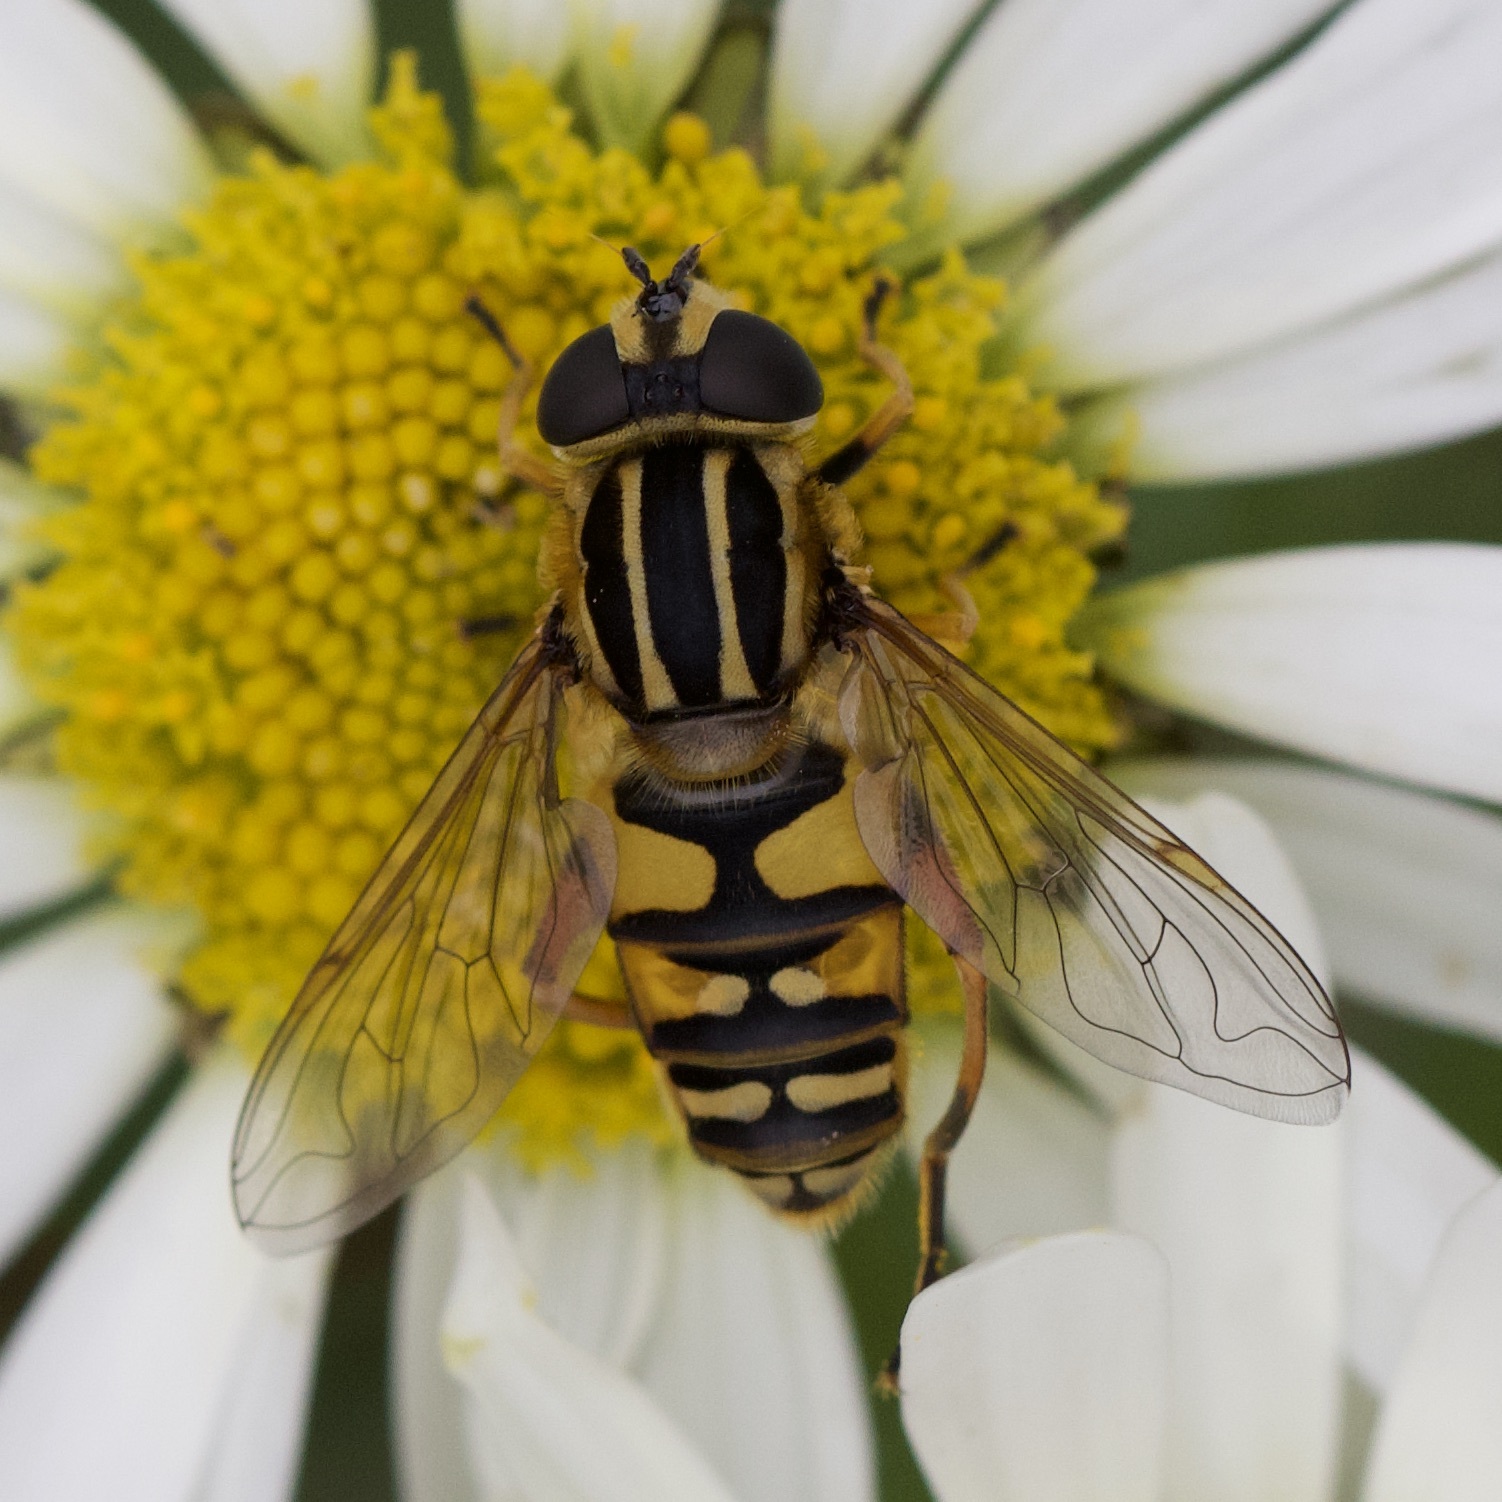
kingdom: Animalia
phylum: Arthropoda
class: Insecta
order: Diptera
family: Syrphidae
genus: Helophilus
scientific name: Helophilus pendulus
